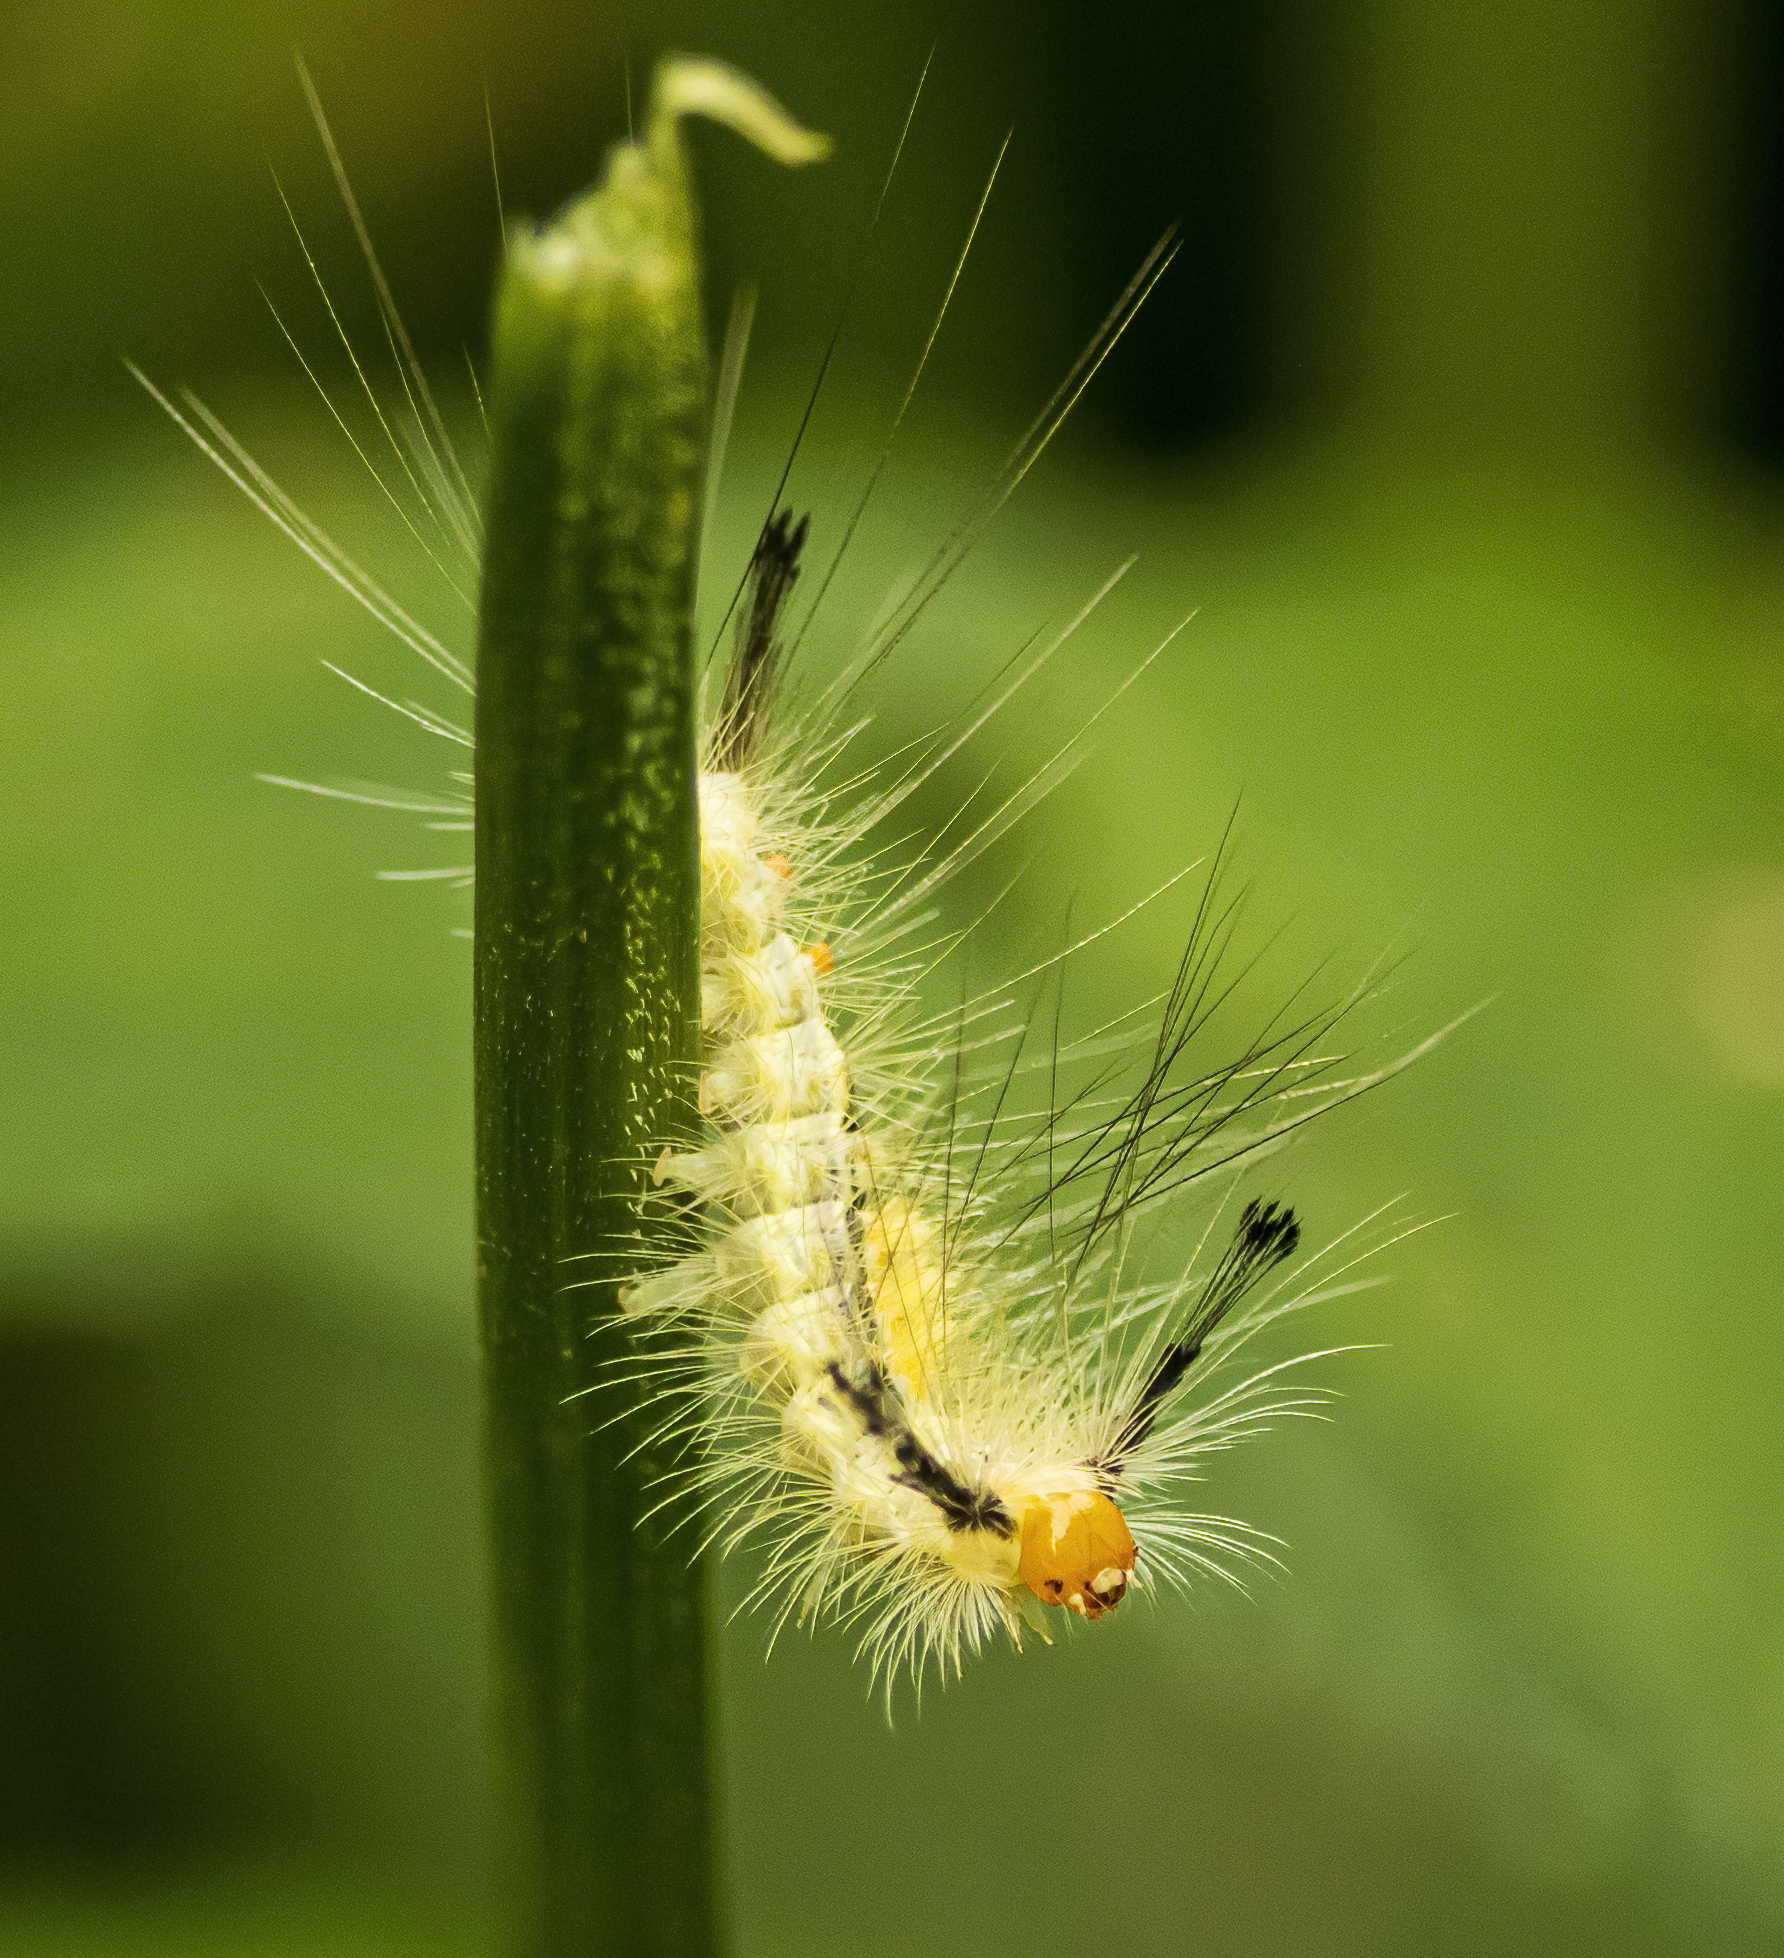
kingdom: Animalia
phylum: Arthropoda
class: Insecta
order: Lepidoptera
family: Erebidae
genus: Orgyia
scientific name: Orgyia leucostigma
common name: White-marked tussock moth
